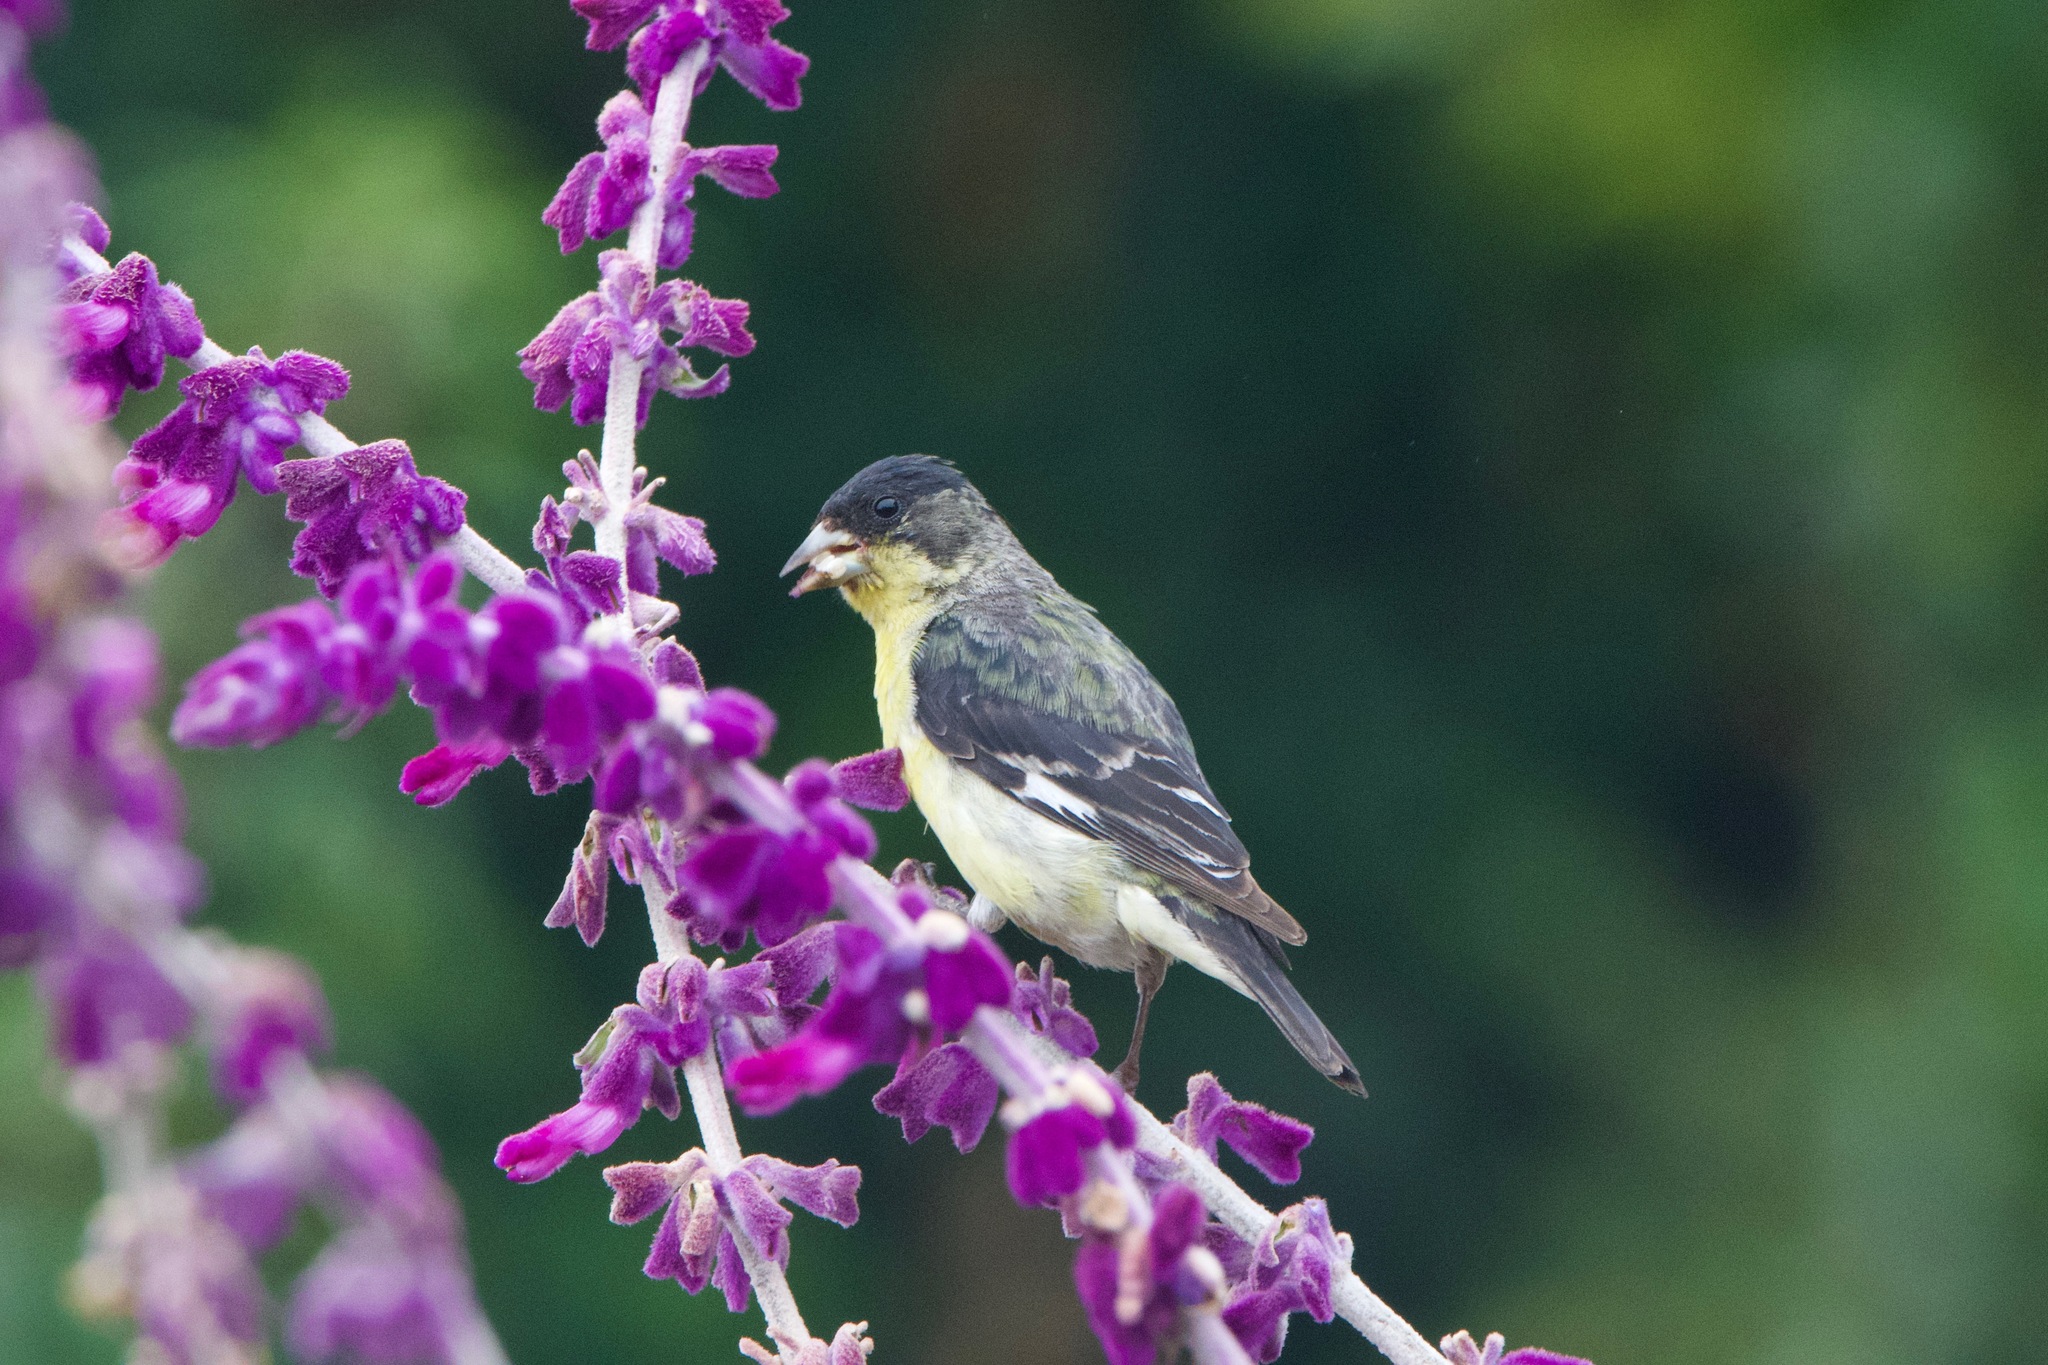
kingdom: Animalia
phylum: Chordata
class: Aves
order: Passeriformes
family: Fringillidae
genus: Spinus
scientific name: Spinus psaltria
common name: Lesser goldfinch
